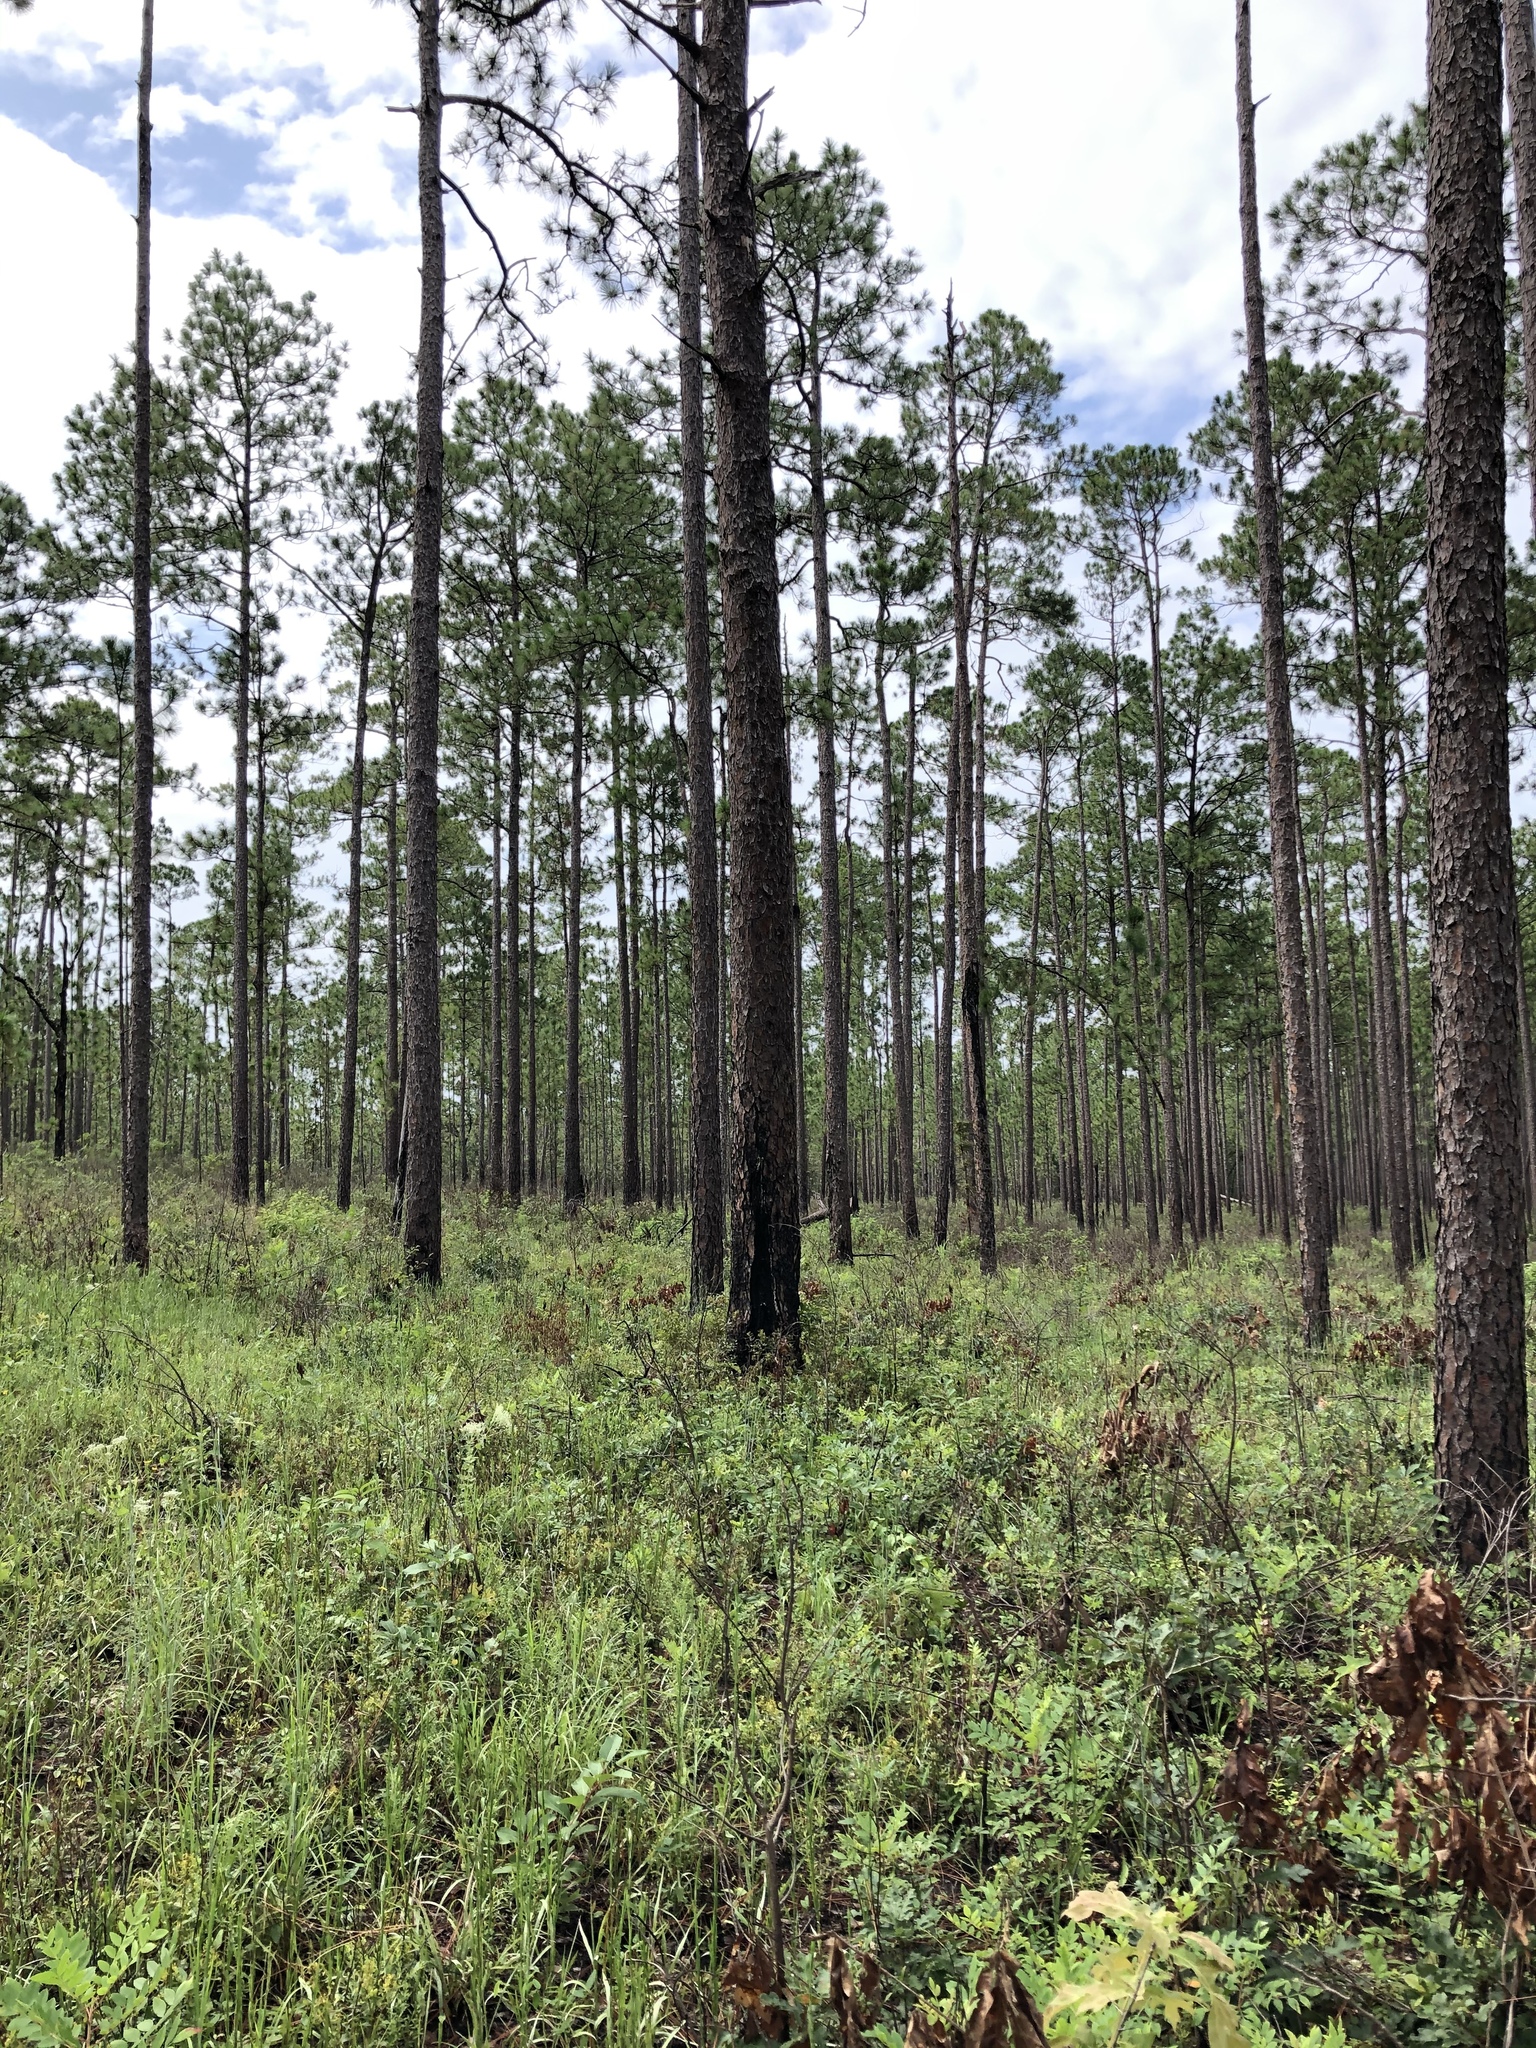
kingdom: Plantae
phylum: Tracheophyta
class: Magnoliopsida
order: Fabales
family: Fabaceae
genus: Centrosema
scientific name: Centrosema virginianum
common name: Butterfly-pea
